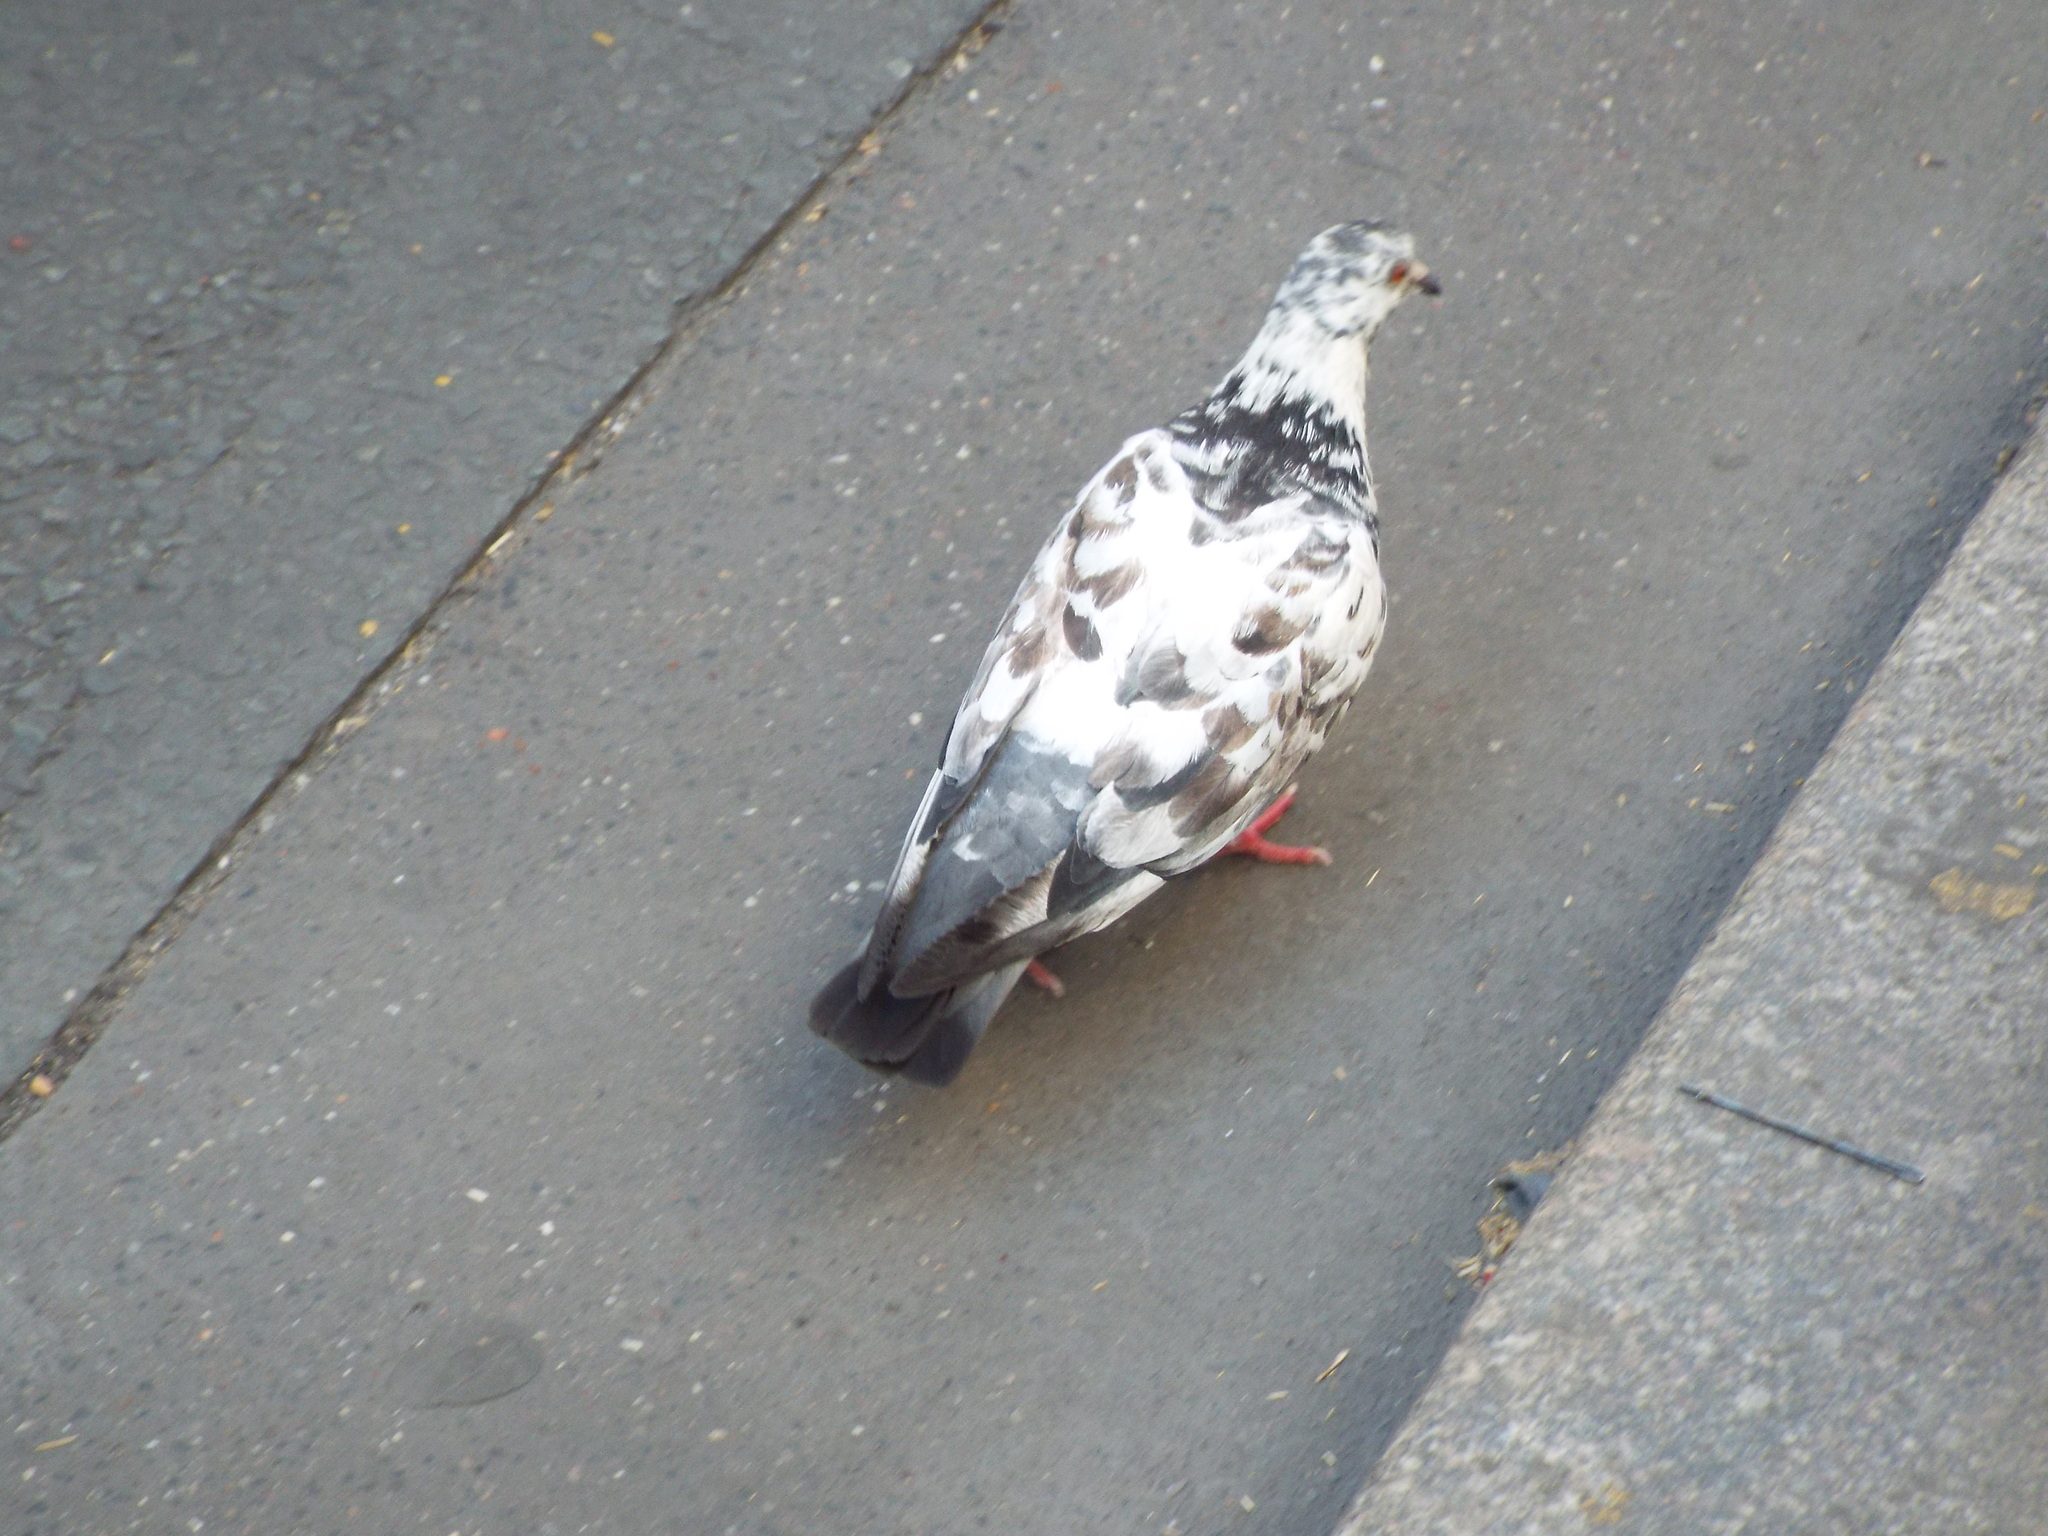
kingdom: Animalia
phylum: Chordata
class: Aves
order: Columbiformes
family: Columbidae
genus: Columba
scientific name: Columba livia
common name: Rock pigeon
